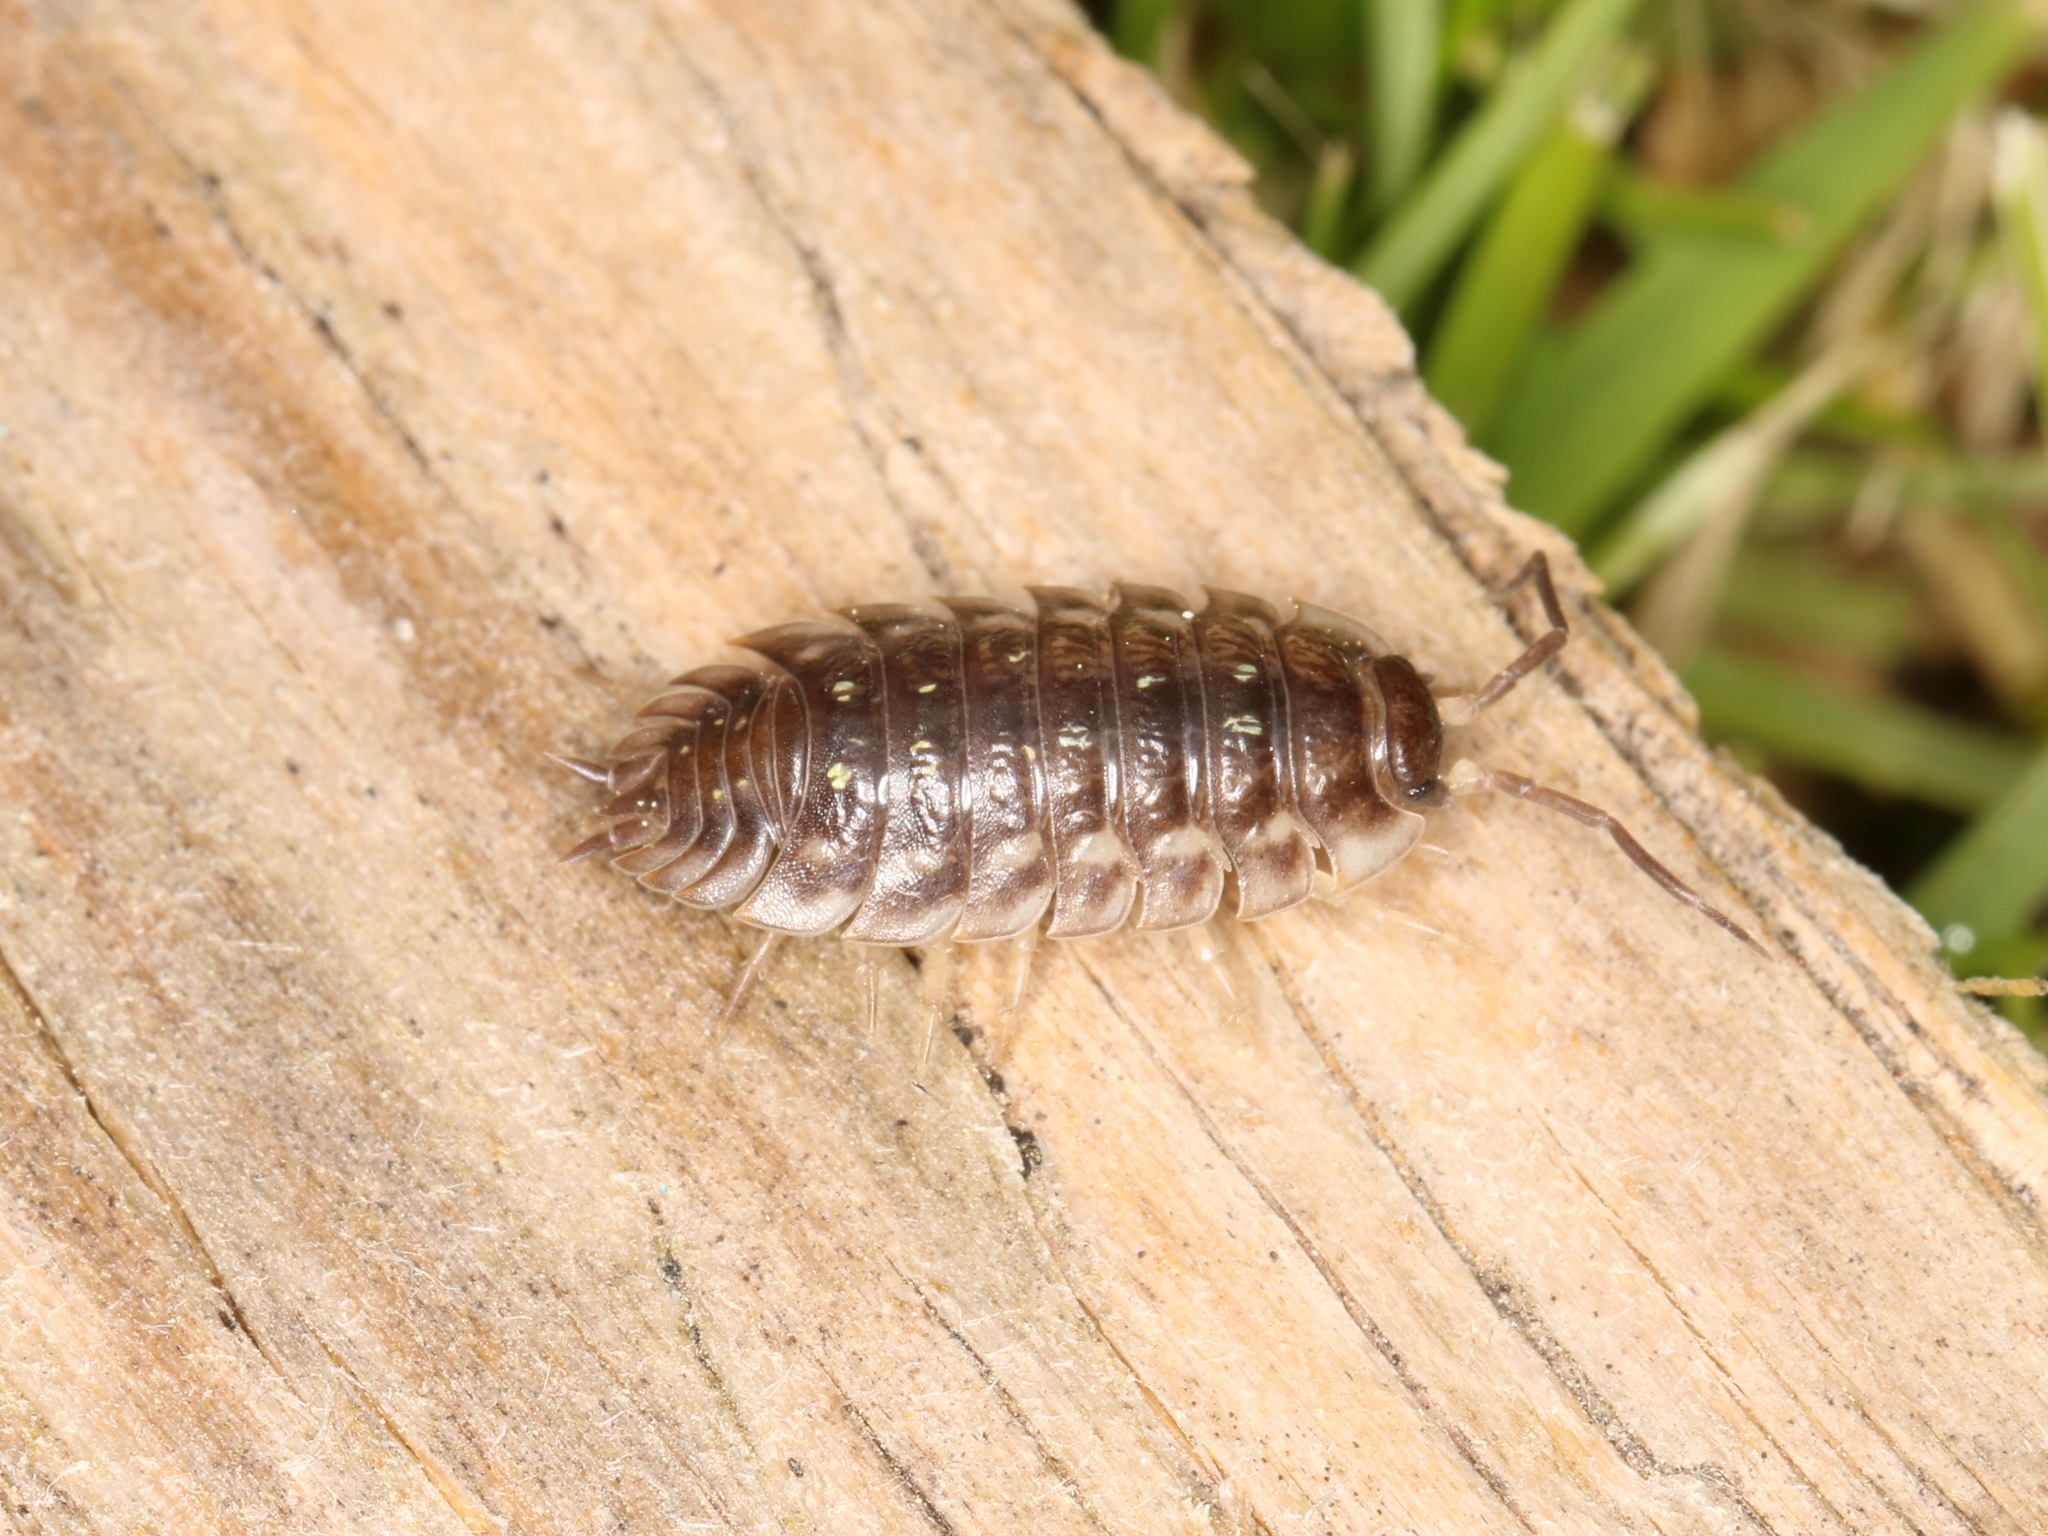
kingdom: Animalia
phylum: Arthropoda
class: Malacostraca
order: Isopoda
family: Oniscidae
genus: Oniscus
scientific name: Oniscus asellus
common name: Common shiny woodlouse
